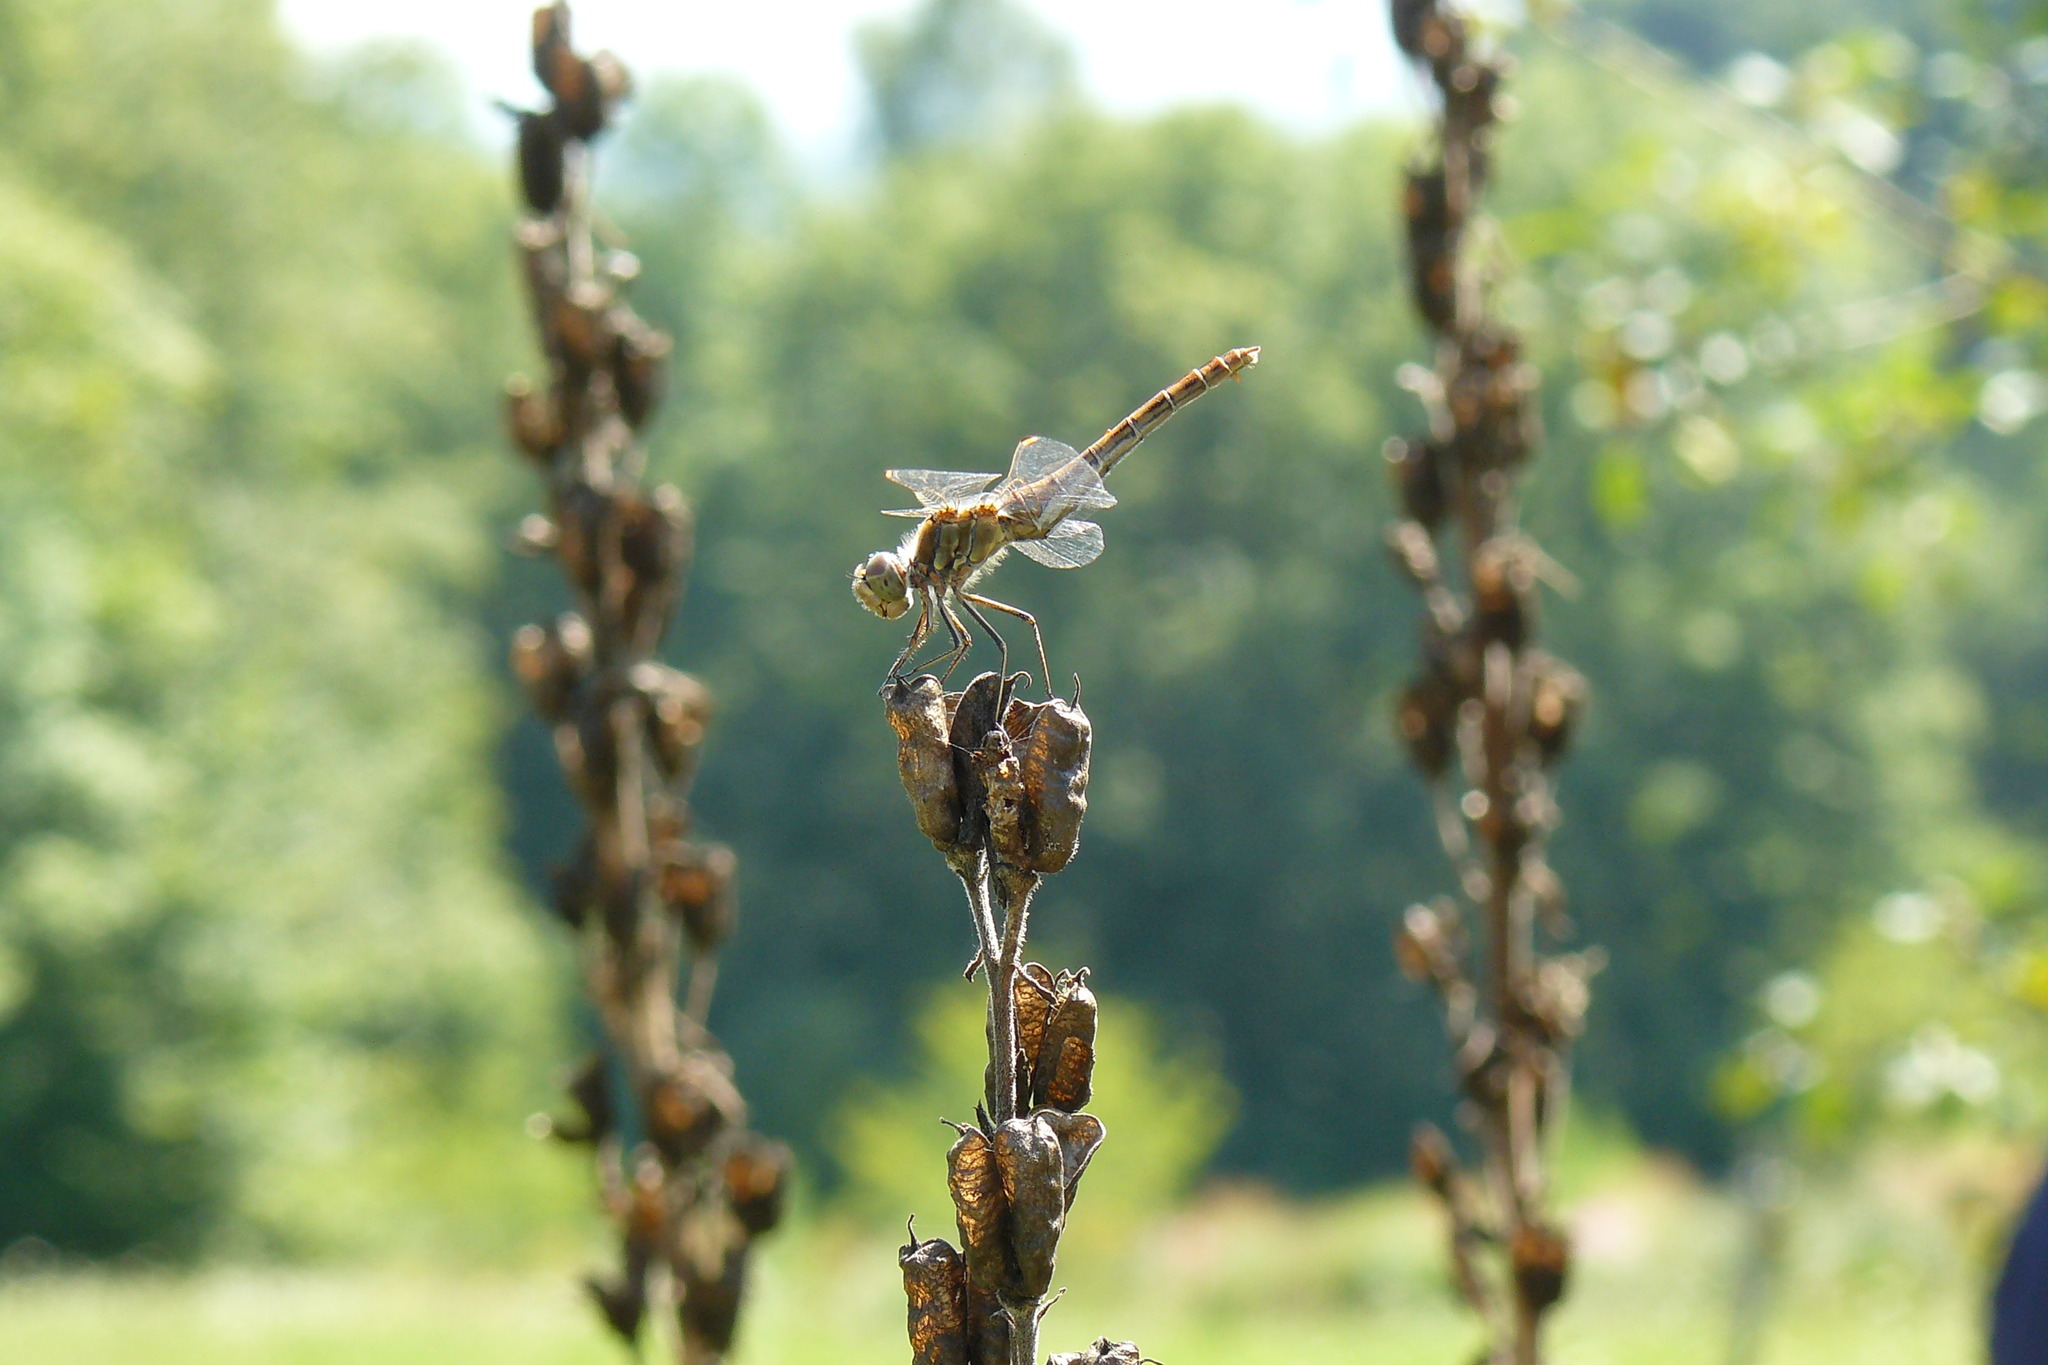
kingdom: Animalia
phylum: Arthropoda
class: Insecta
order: Odonata
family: Libellulidae
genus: Sympetrum
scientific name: Sympetrum vulgatum
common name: Vagrant darter
